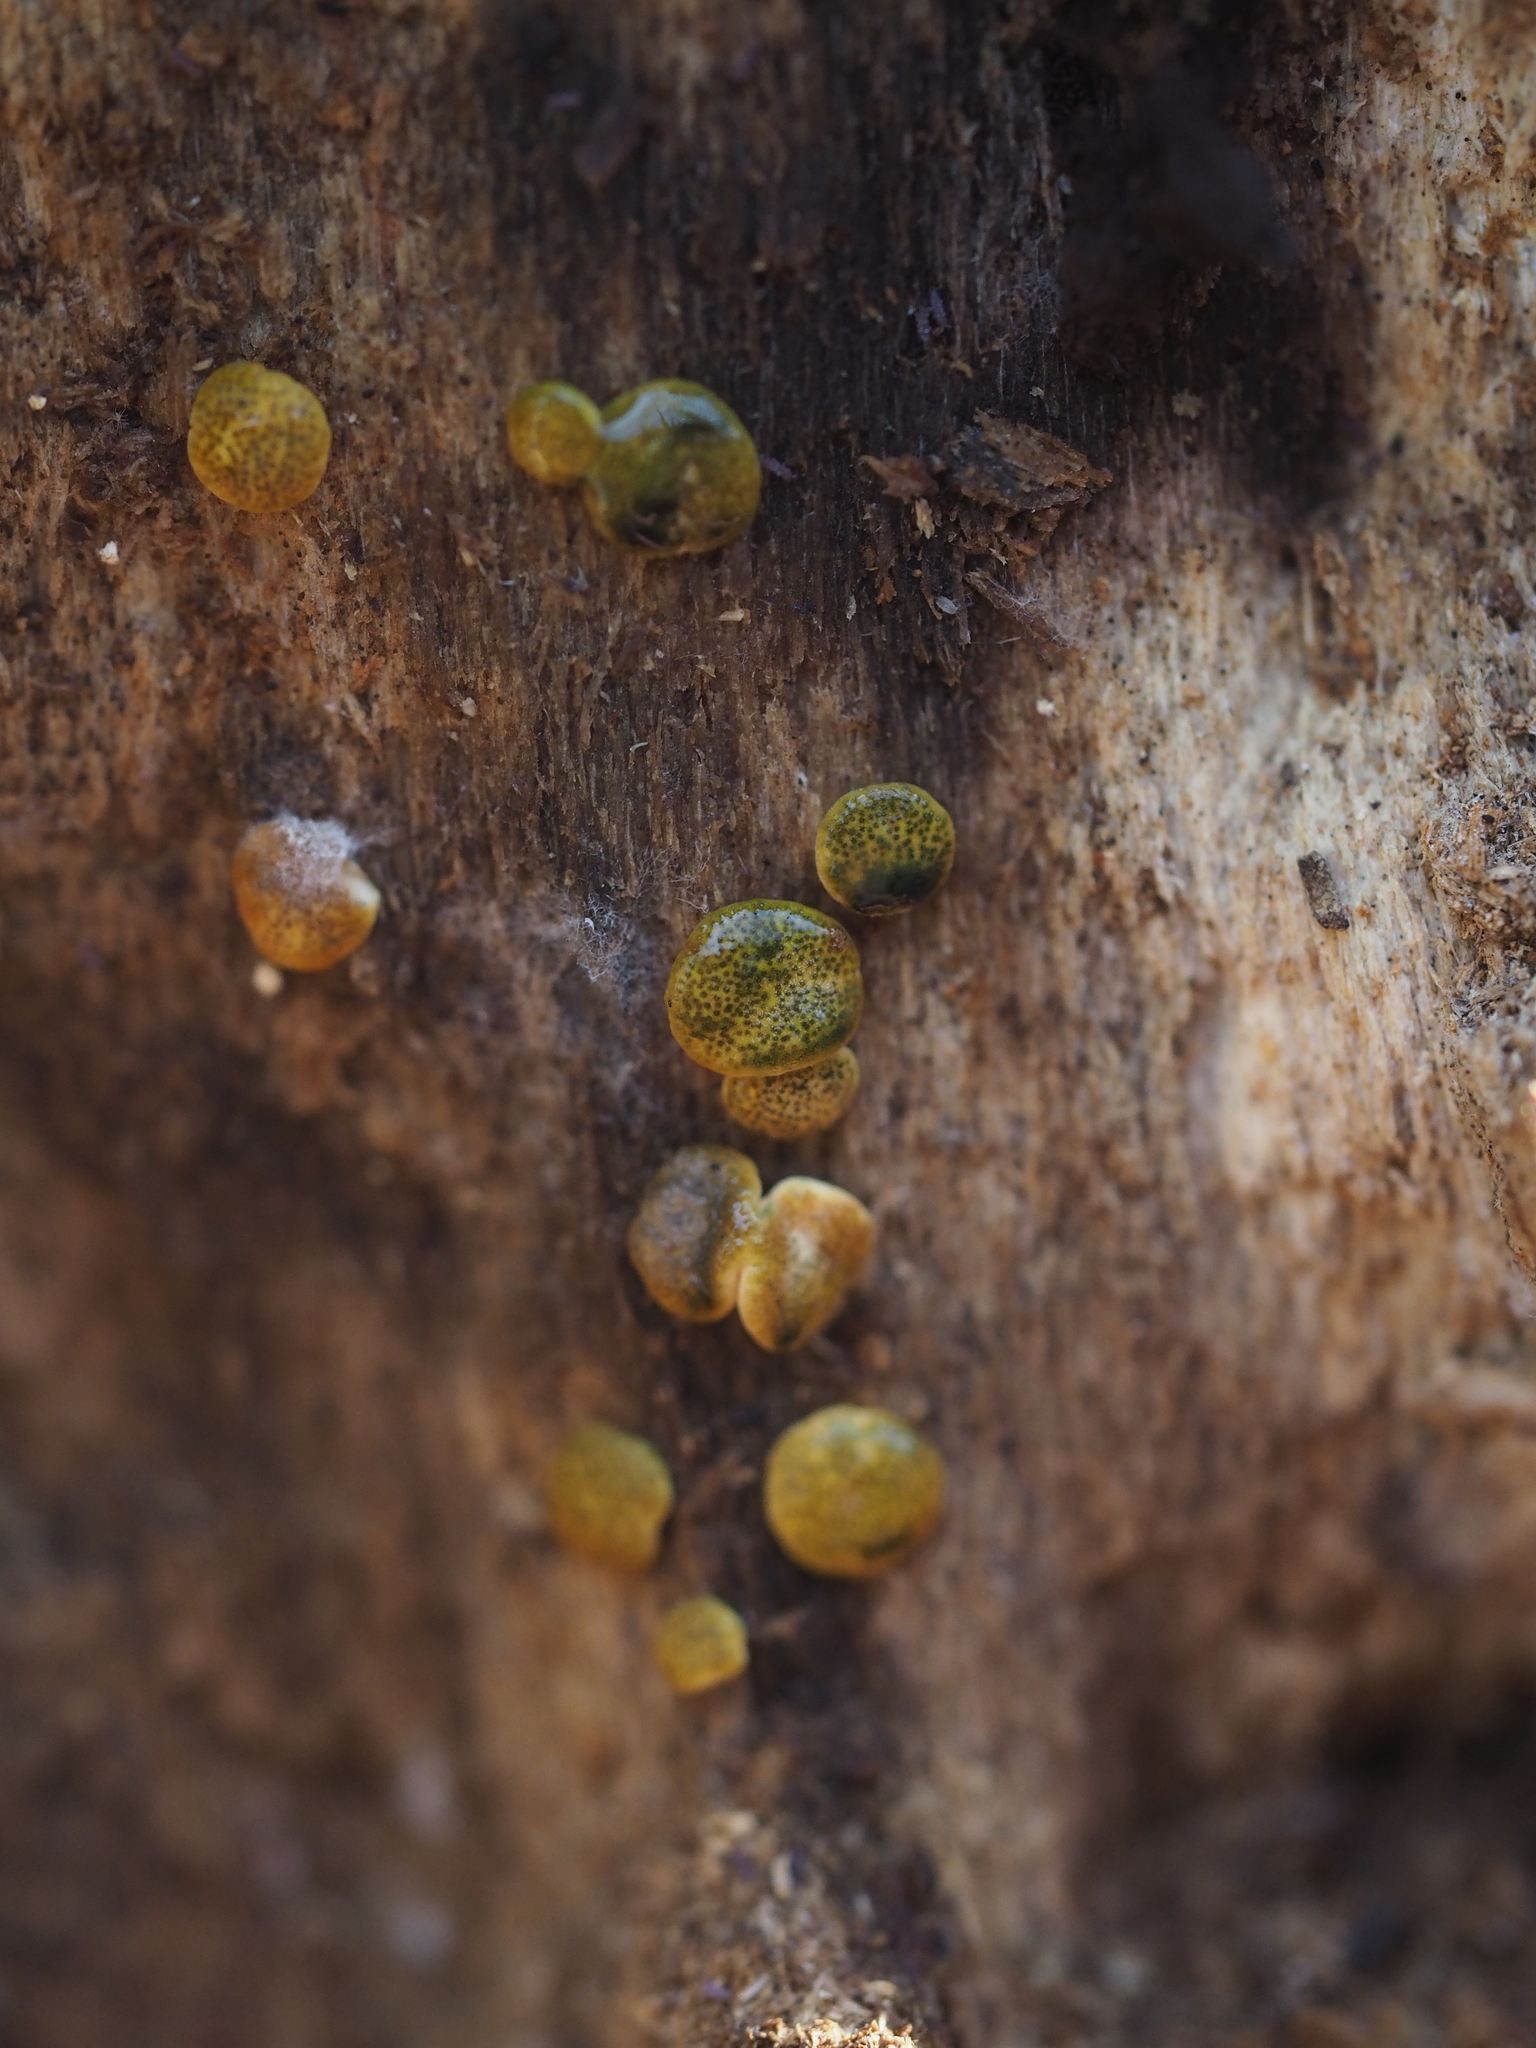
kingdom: Fungi
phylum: Ascomycota
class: Sordariomycetes
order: Hypocreales
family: Hypocreaceae
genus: Trichoderma
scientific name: Trichoderma aureoviride
